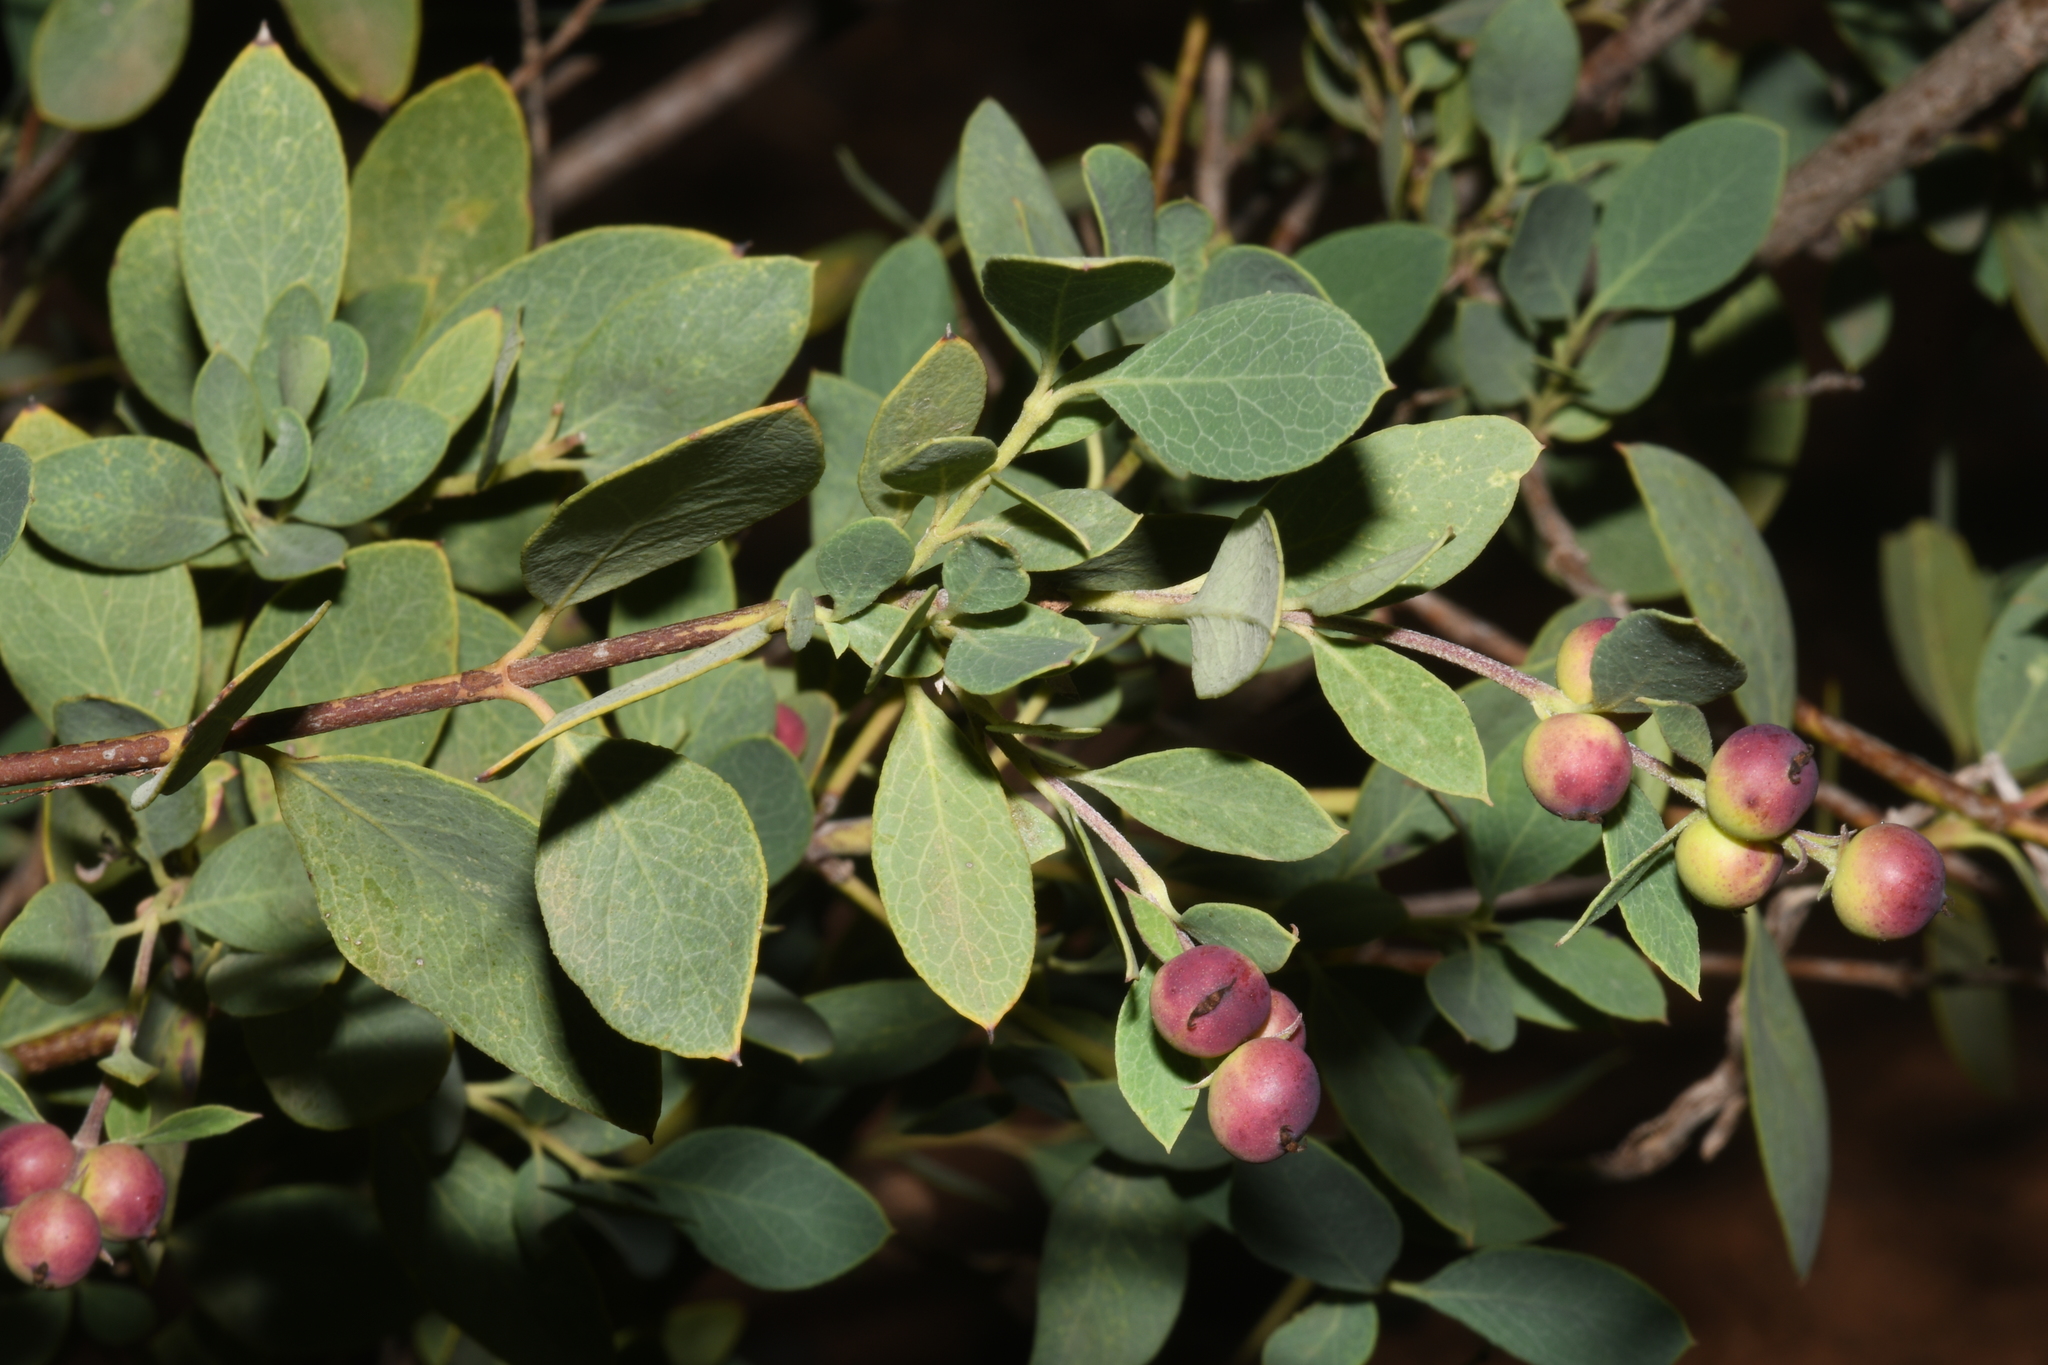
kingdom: Plantae
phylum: Tracheophyta
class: Magnoliopsida
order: Garryales
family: Garryaceae
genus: Garrya
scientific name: Garrya wrightii
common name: Wright's silktassel
